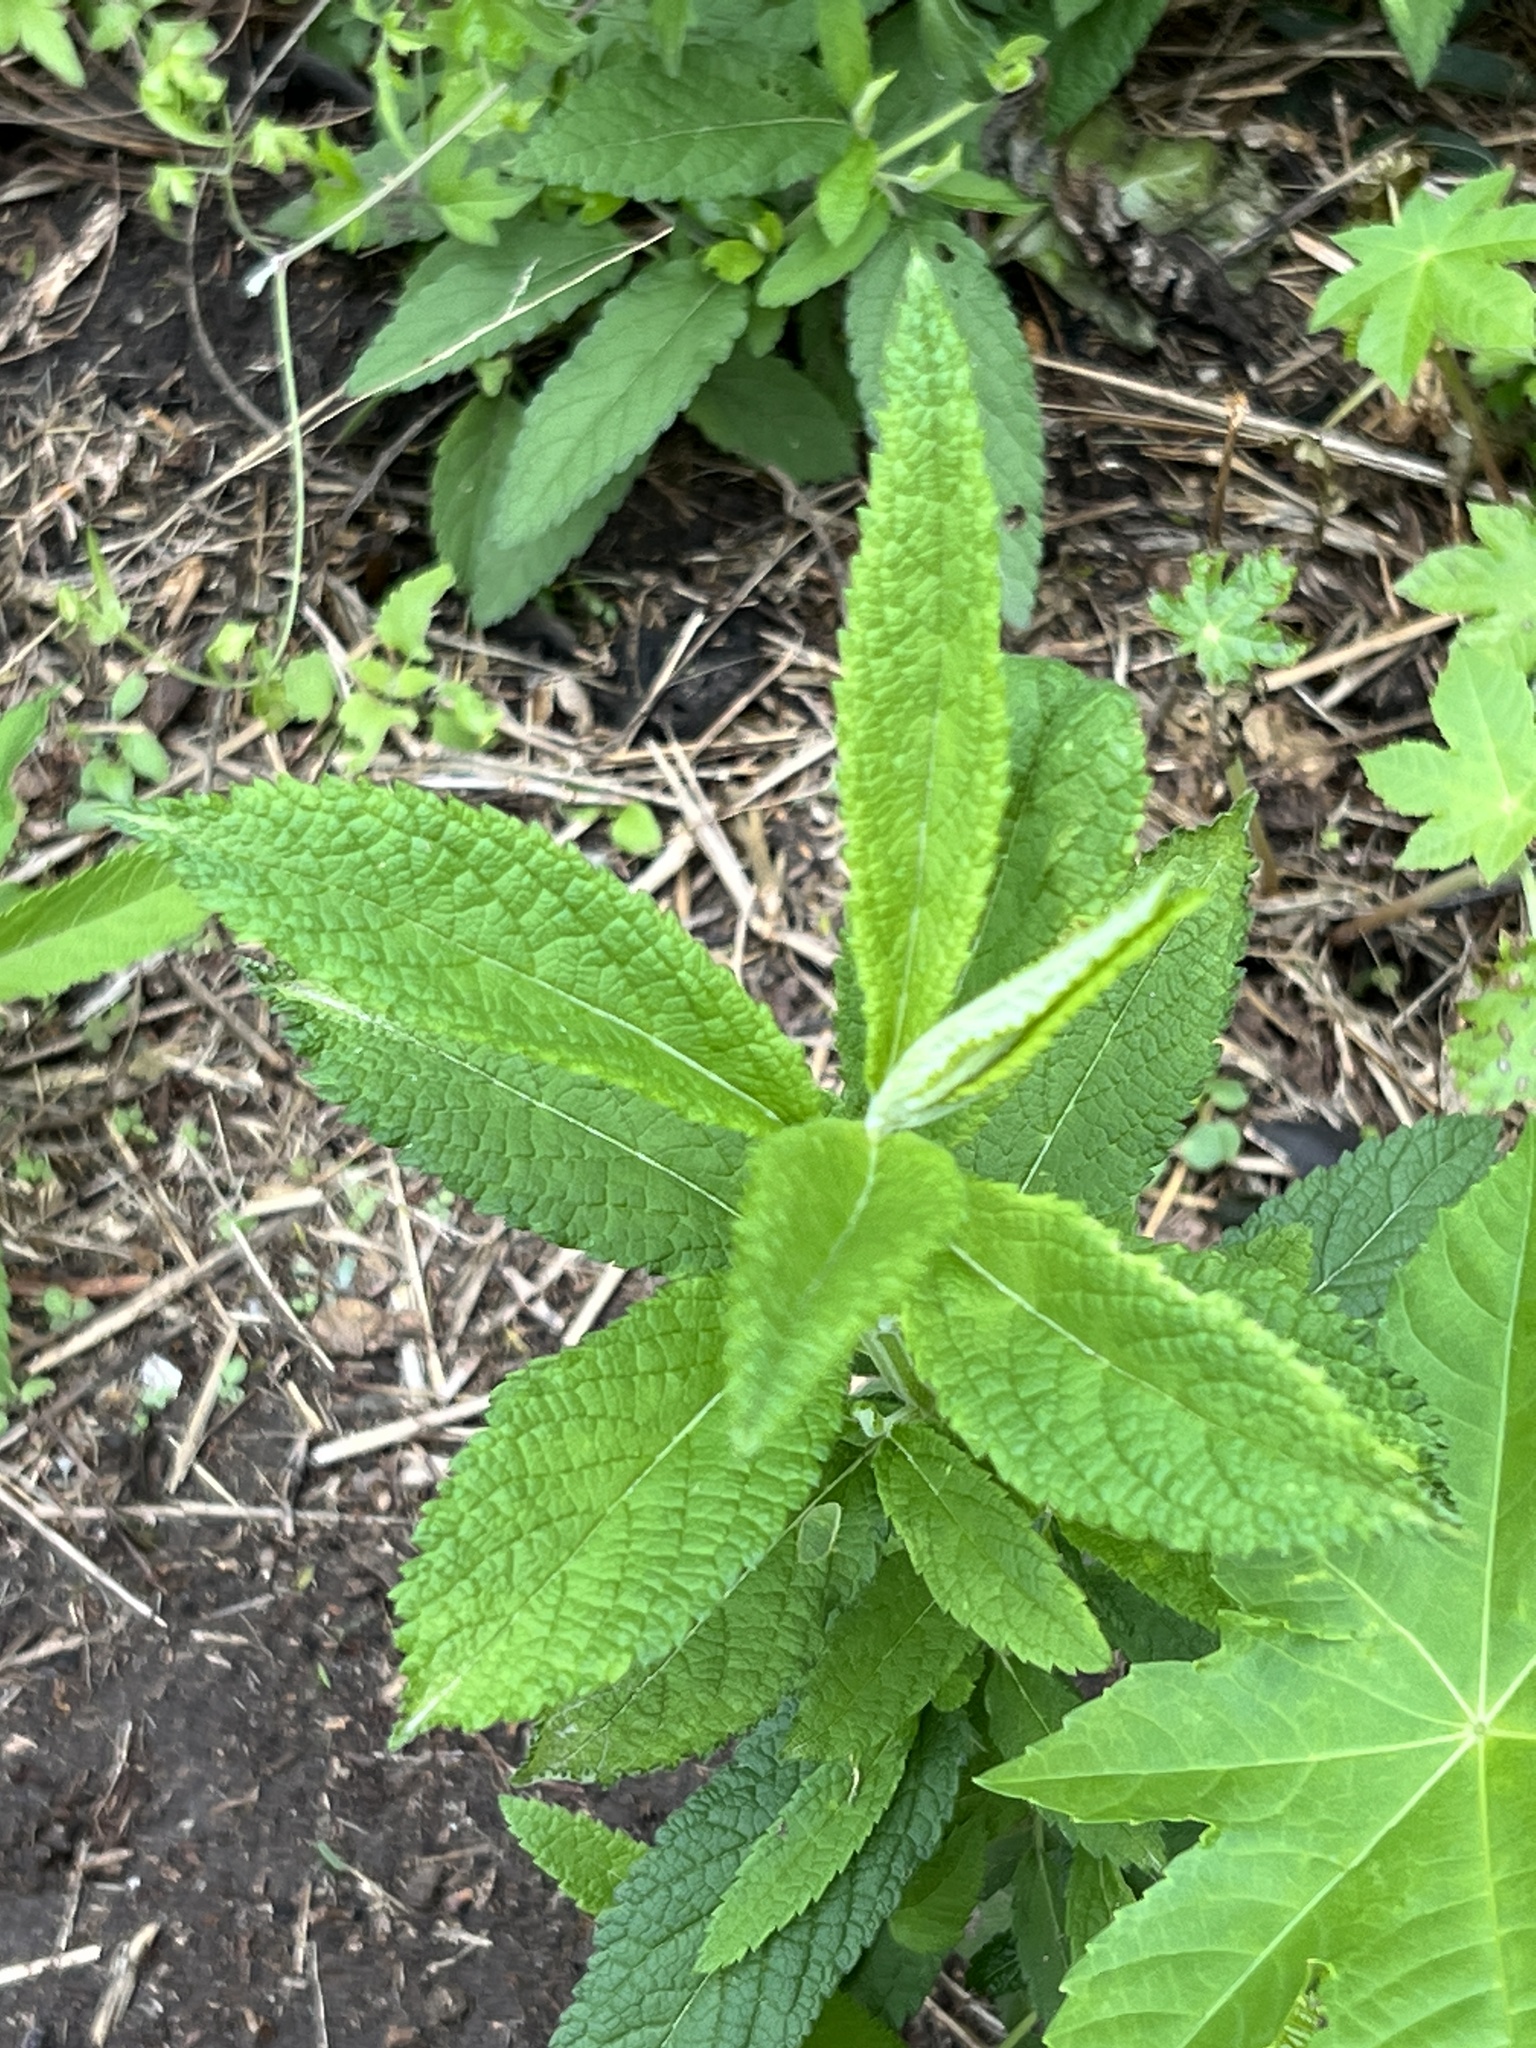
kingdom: Plantae
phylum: Tracheophyta
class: Magnoliopsida
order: Lamiales
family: Lamiaceae
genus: Teucrium
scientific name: Teucrium canadense
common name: American germander
